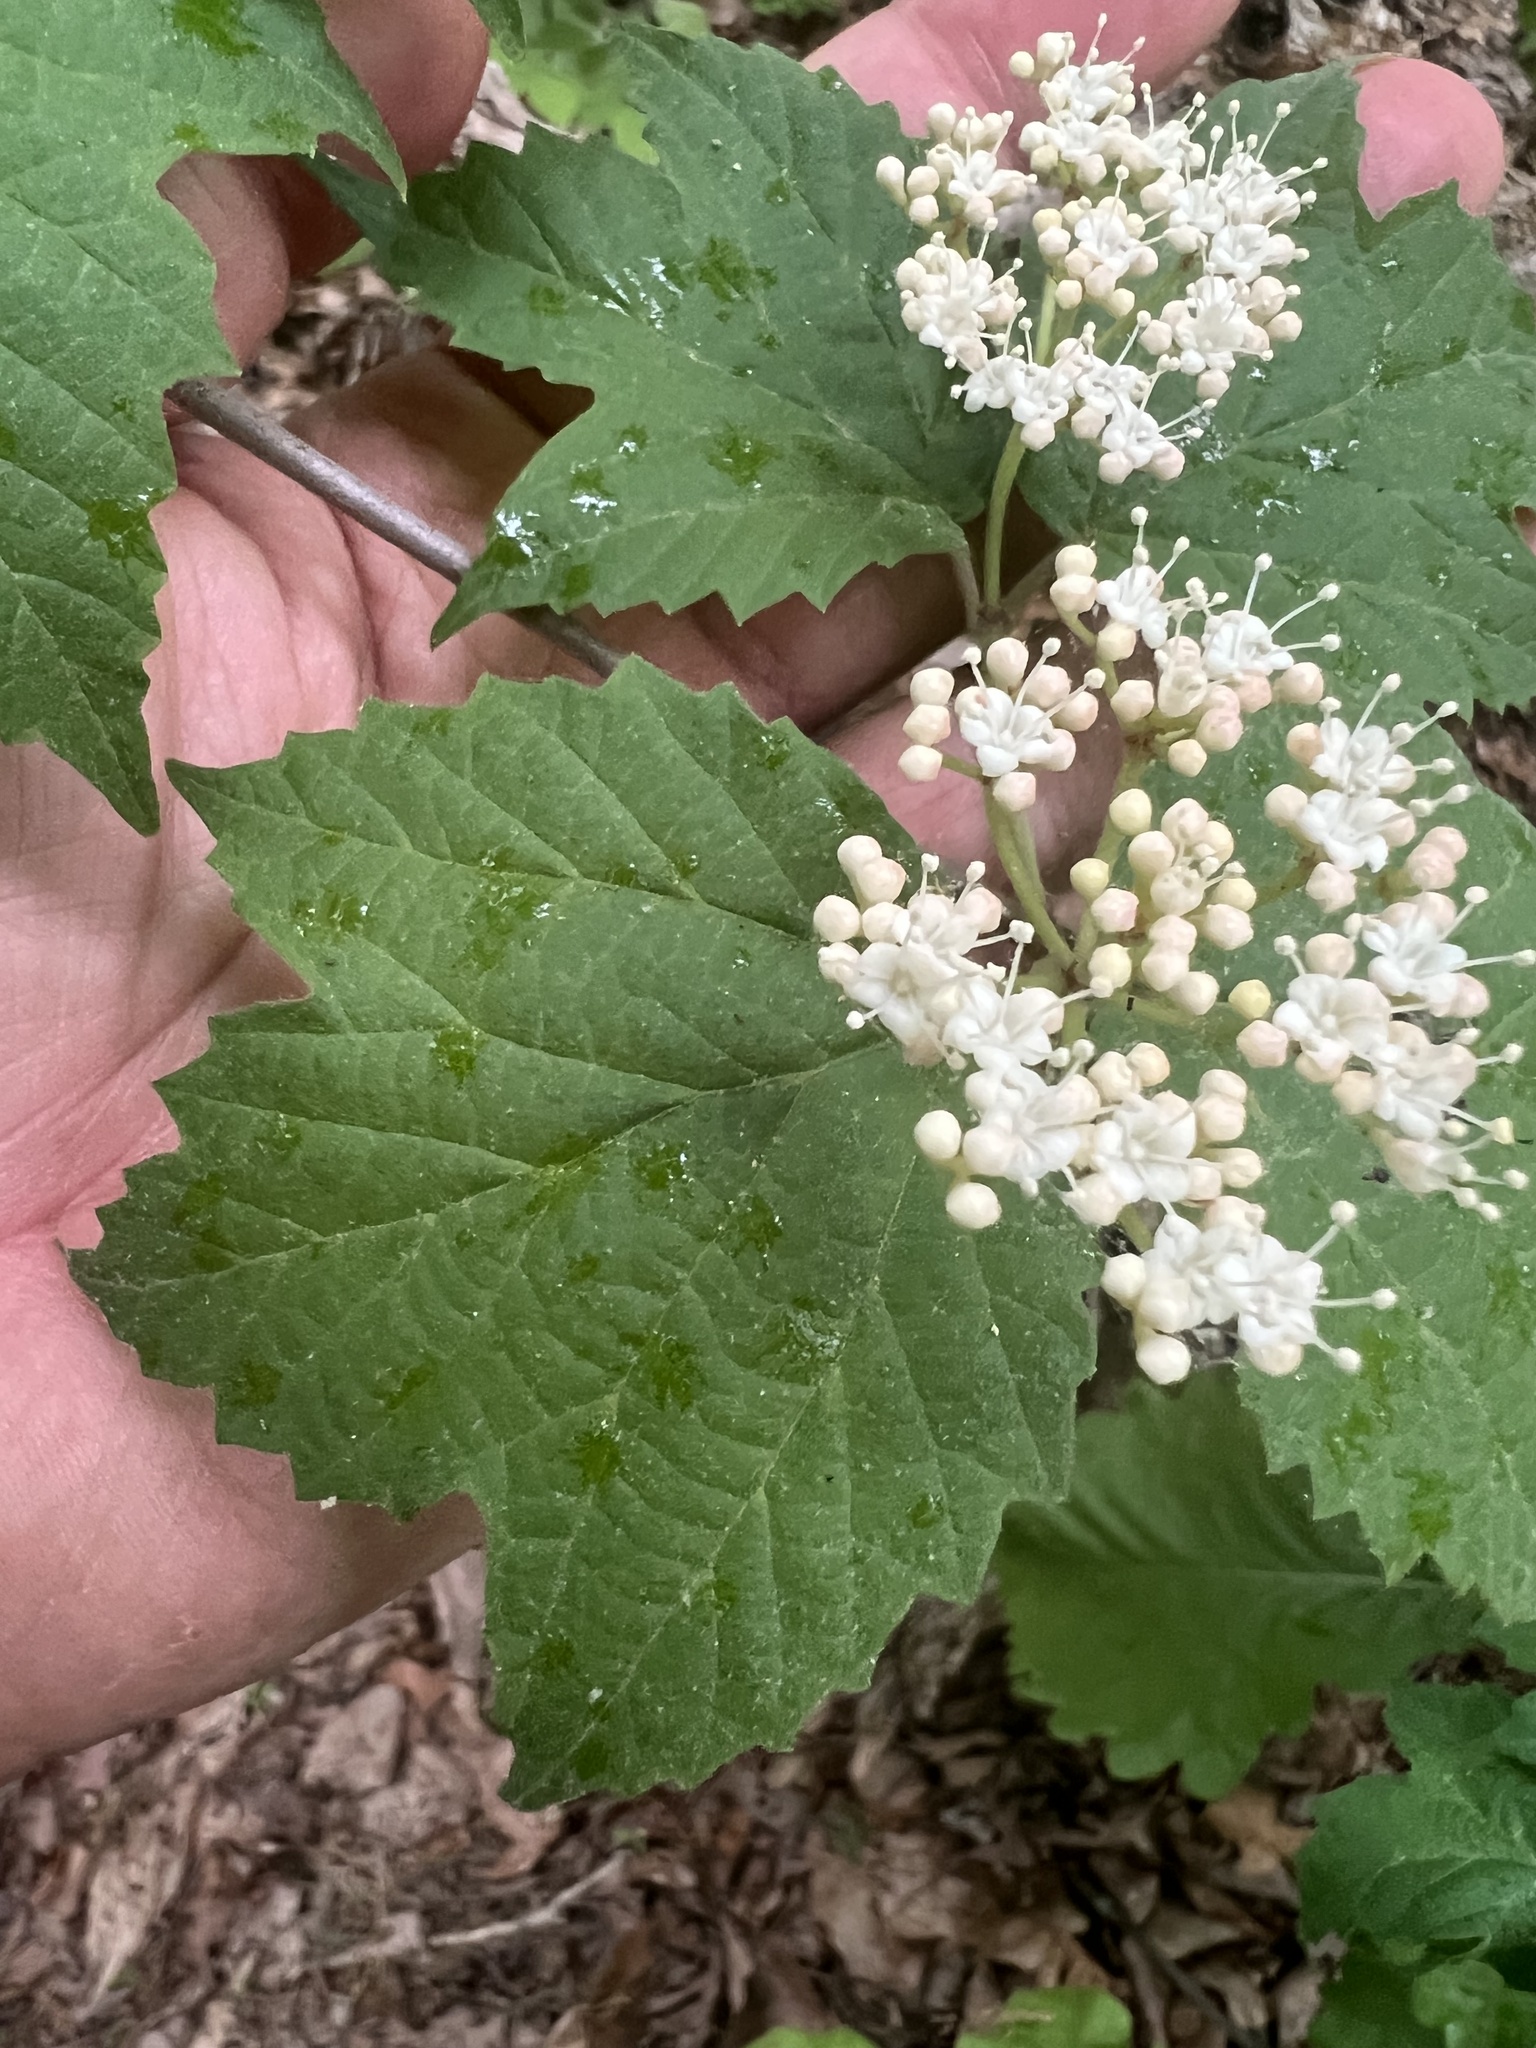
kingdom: Plantae
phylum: Tracheophyta
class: Magnoliopsida
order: Dipsacales
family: Viburnaceae
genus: Viburnum
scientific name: Viburnum acerifolium
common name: Dockmackie
